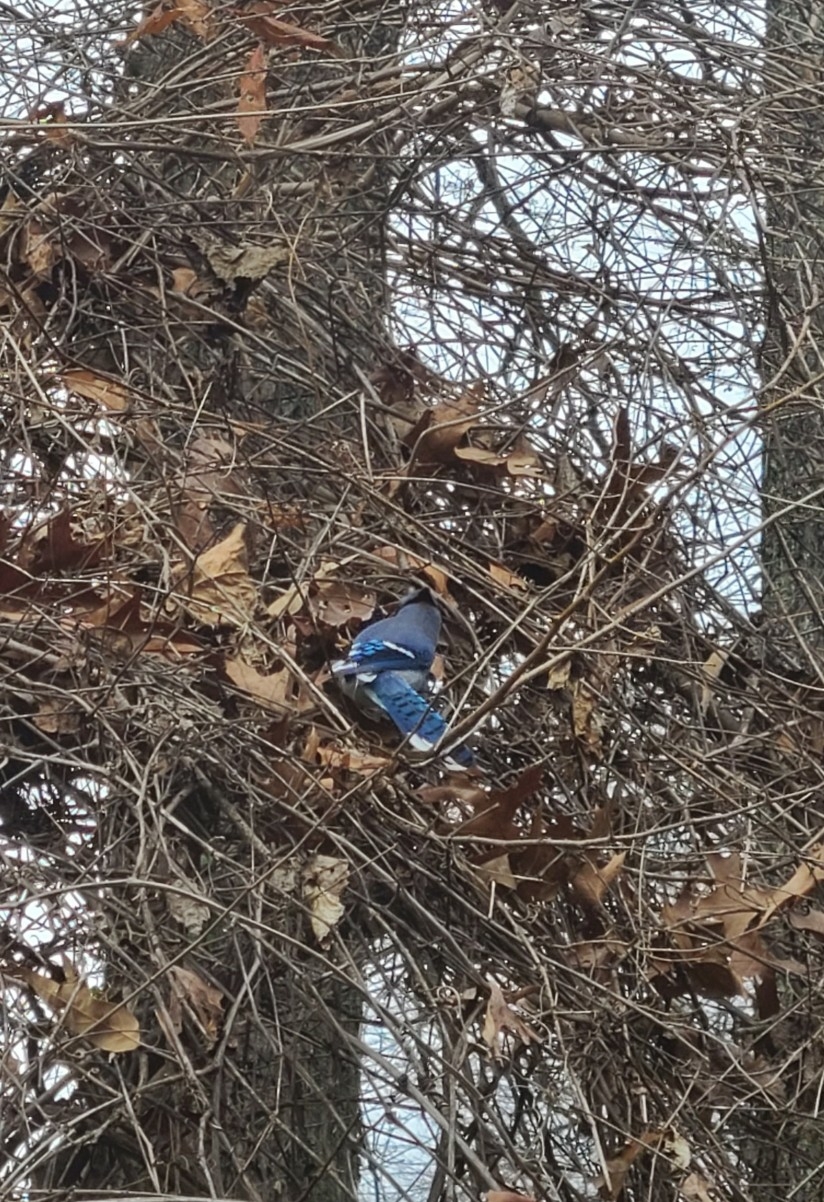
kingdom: Animalia
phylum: Chordata
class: Aves
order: Passeriformes
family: Corvidae
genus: Cyanocitta
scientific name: Cyanocitta cristata
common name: Blue jay
